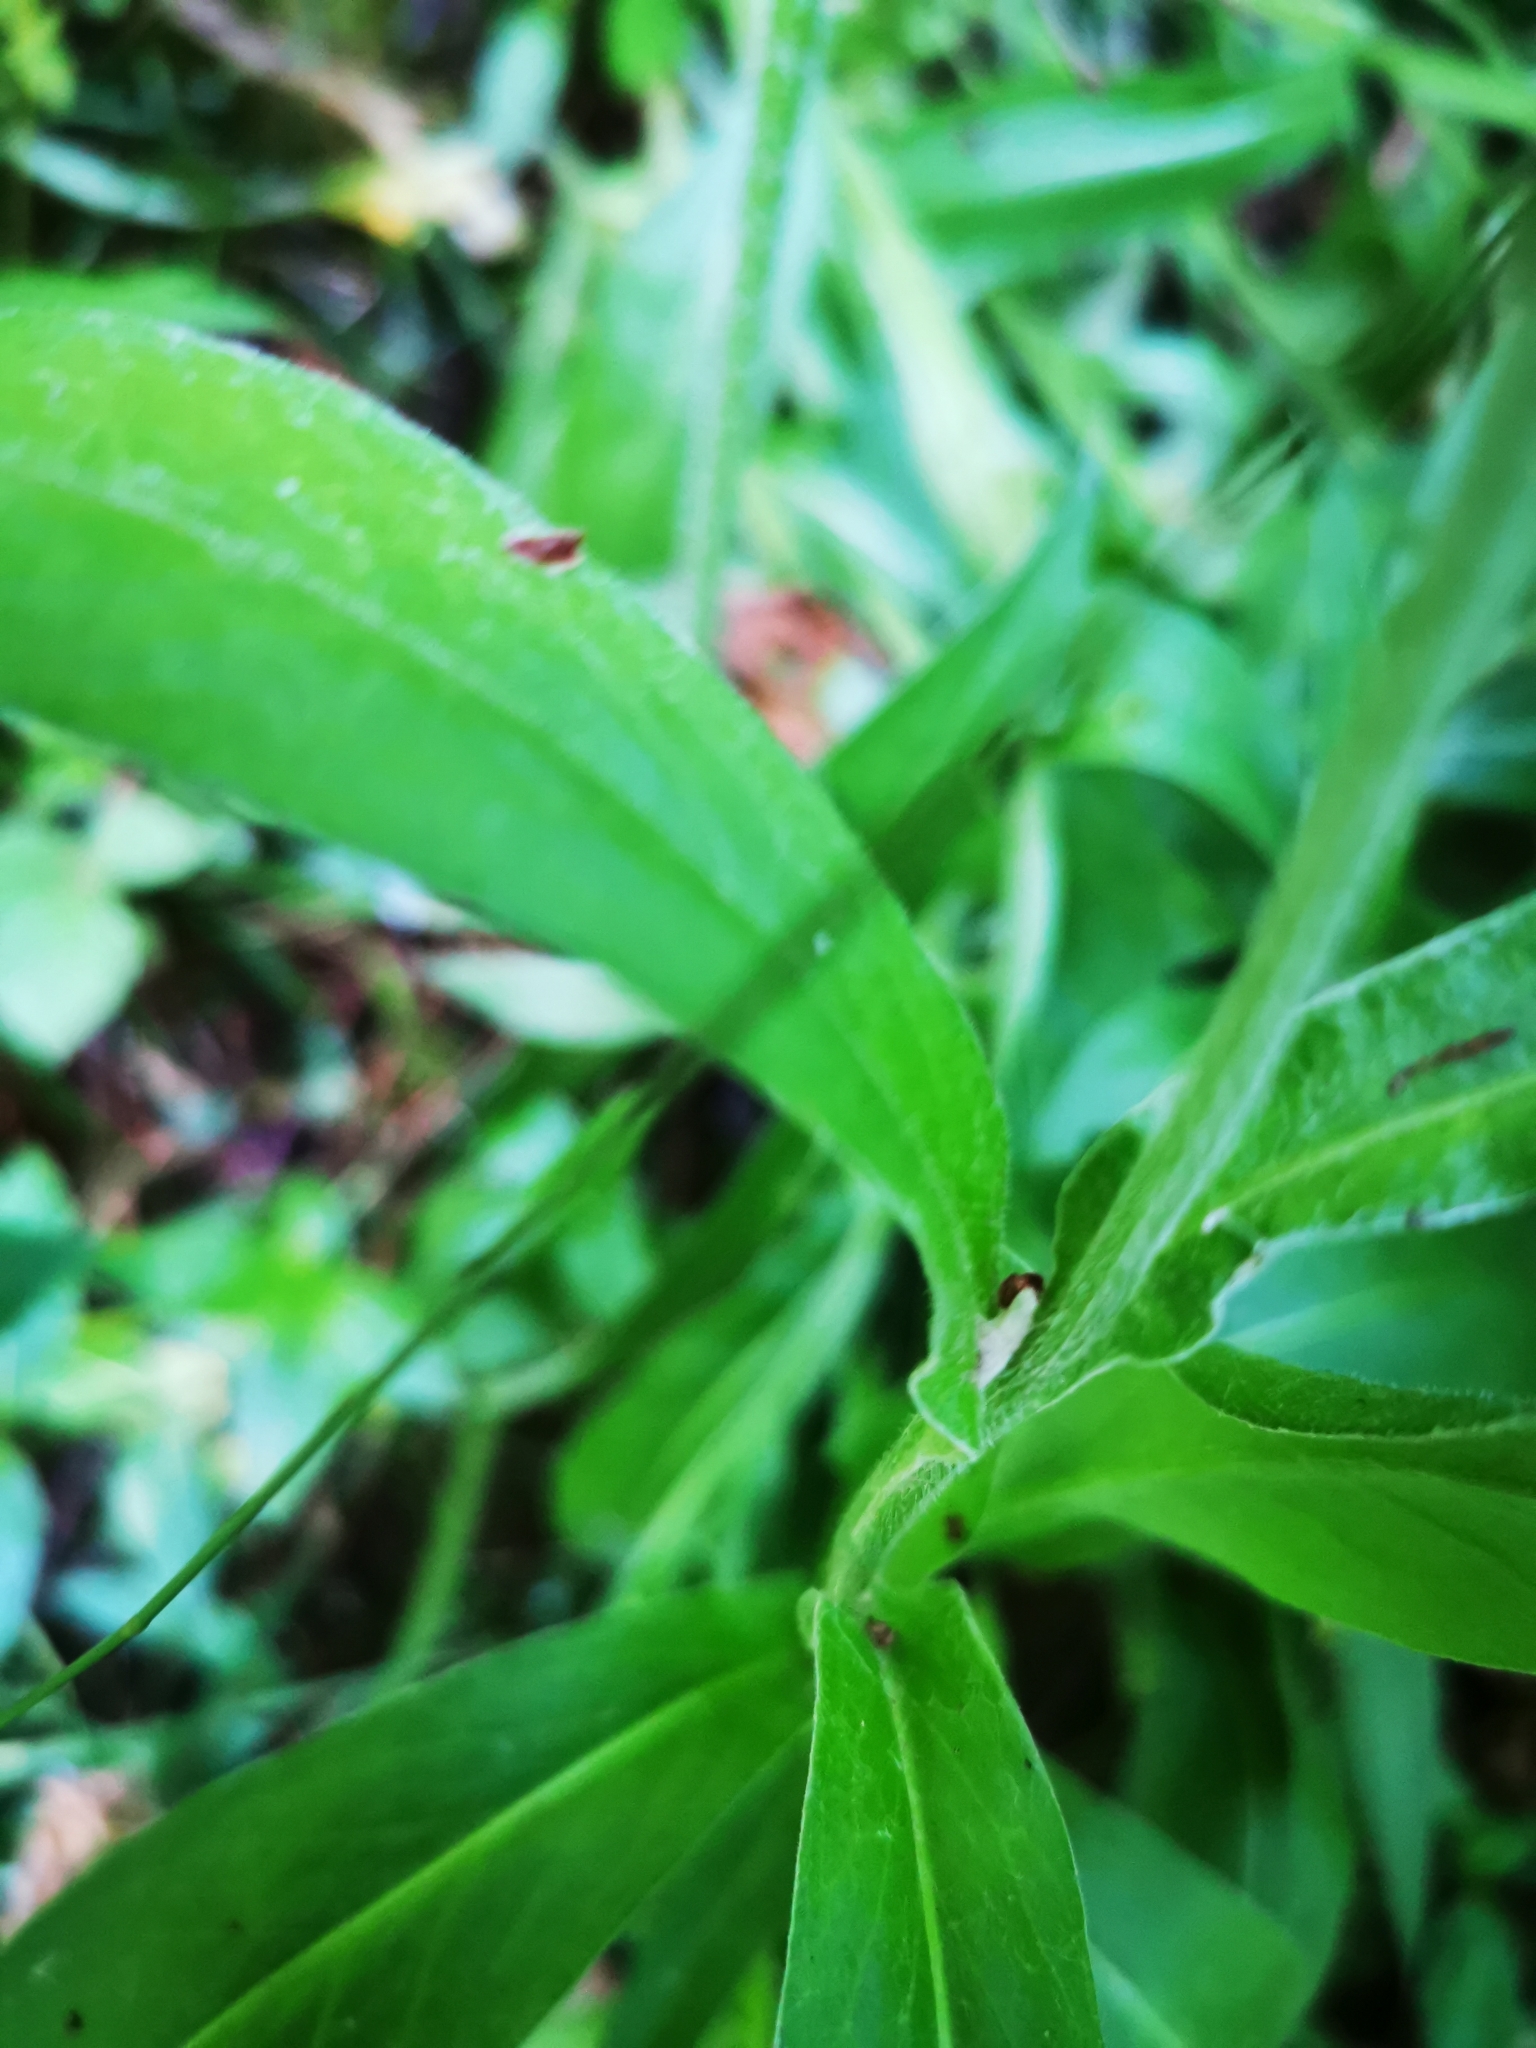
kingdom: Plantae
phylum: Tracheophyta
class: Magnoliopsida
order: Asterales
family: Asteraceae
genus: Centaurea
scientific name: Centaurea montana
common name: Perennial cornflower
